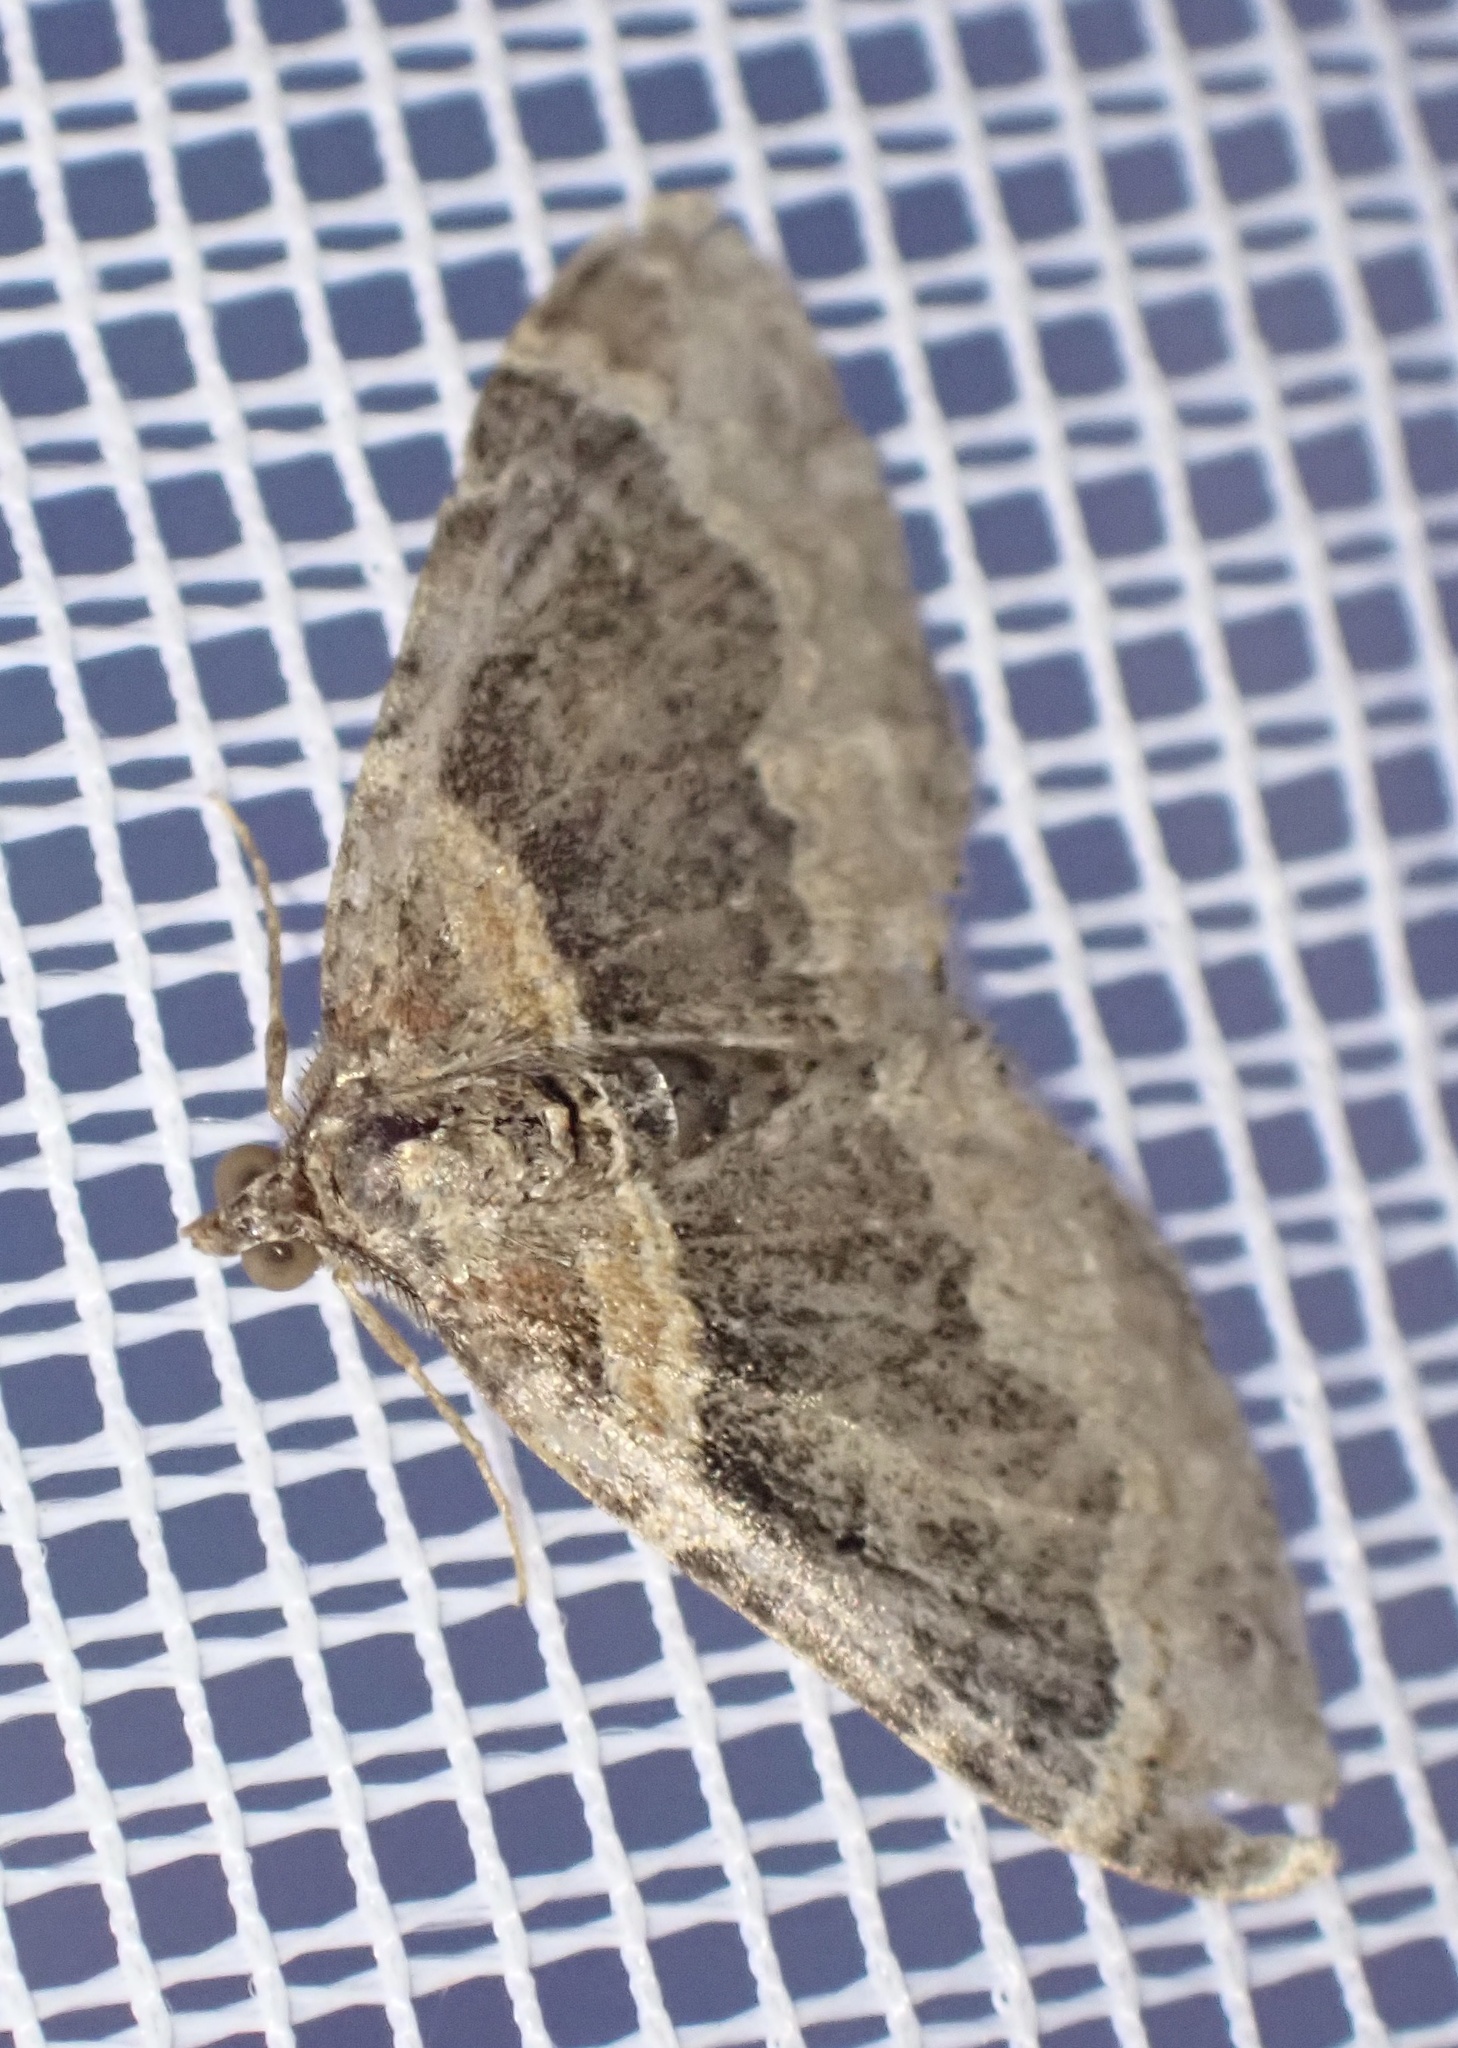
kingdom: Animalia
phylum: Arthropoda
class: Insecta
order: Lepidoptera
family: Geometridae
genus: Xanthorhoe
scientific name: Xanthorhoe ferrugata
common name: Dark-barred twin-spot carpet
